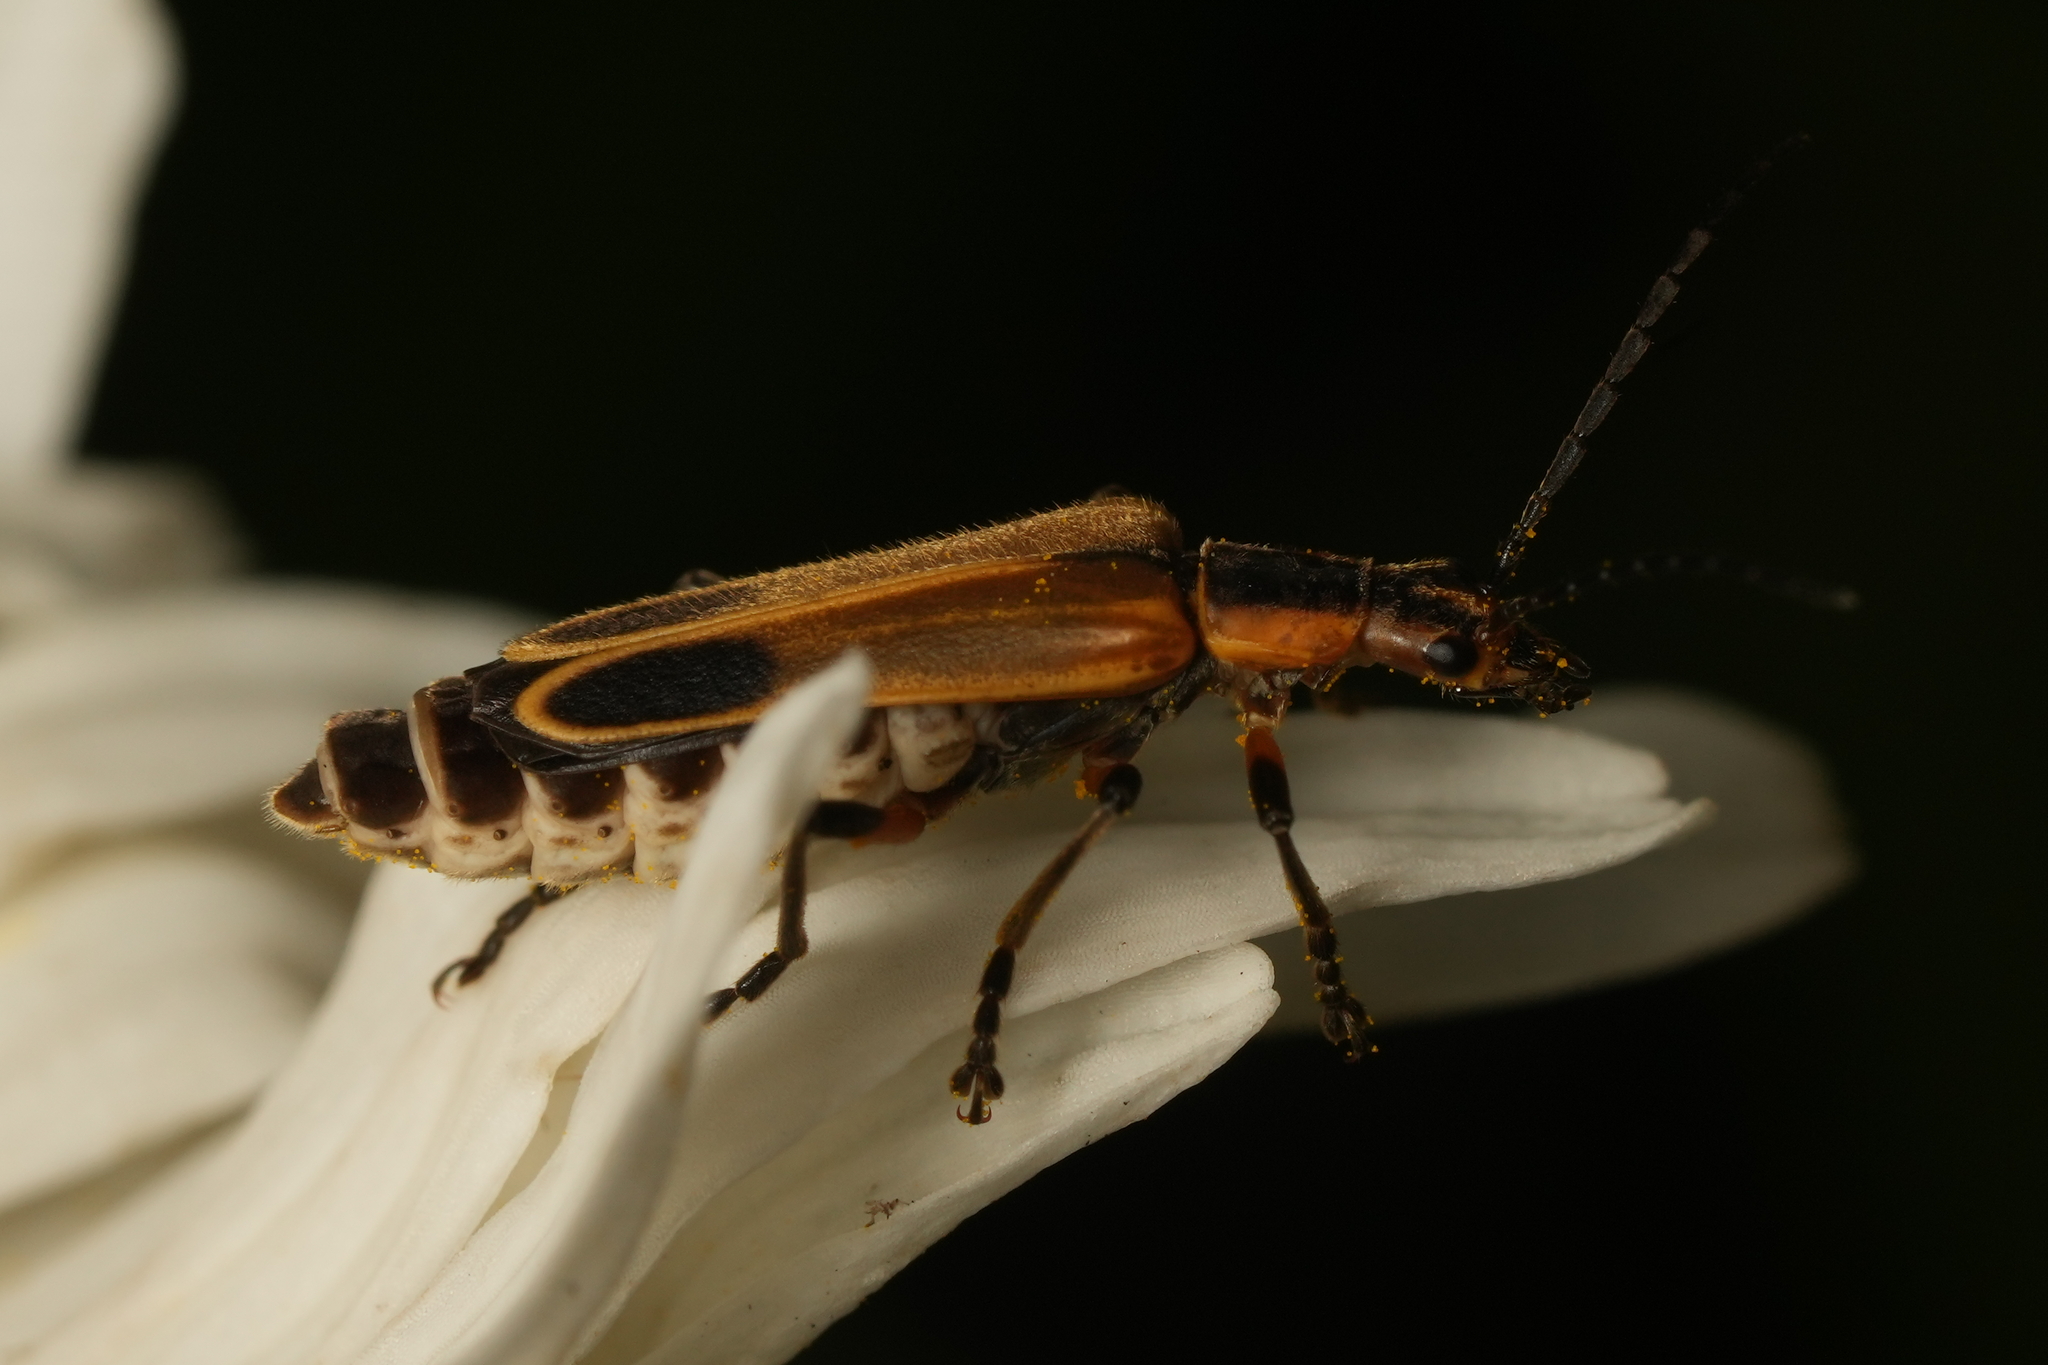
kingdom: Animalia
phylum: Arthropoda
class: Insecta
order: Coleoptera
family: Cantharidae
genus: Chauliognathus
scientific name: Chauliognathus marginatus
